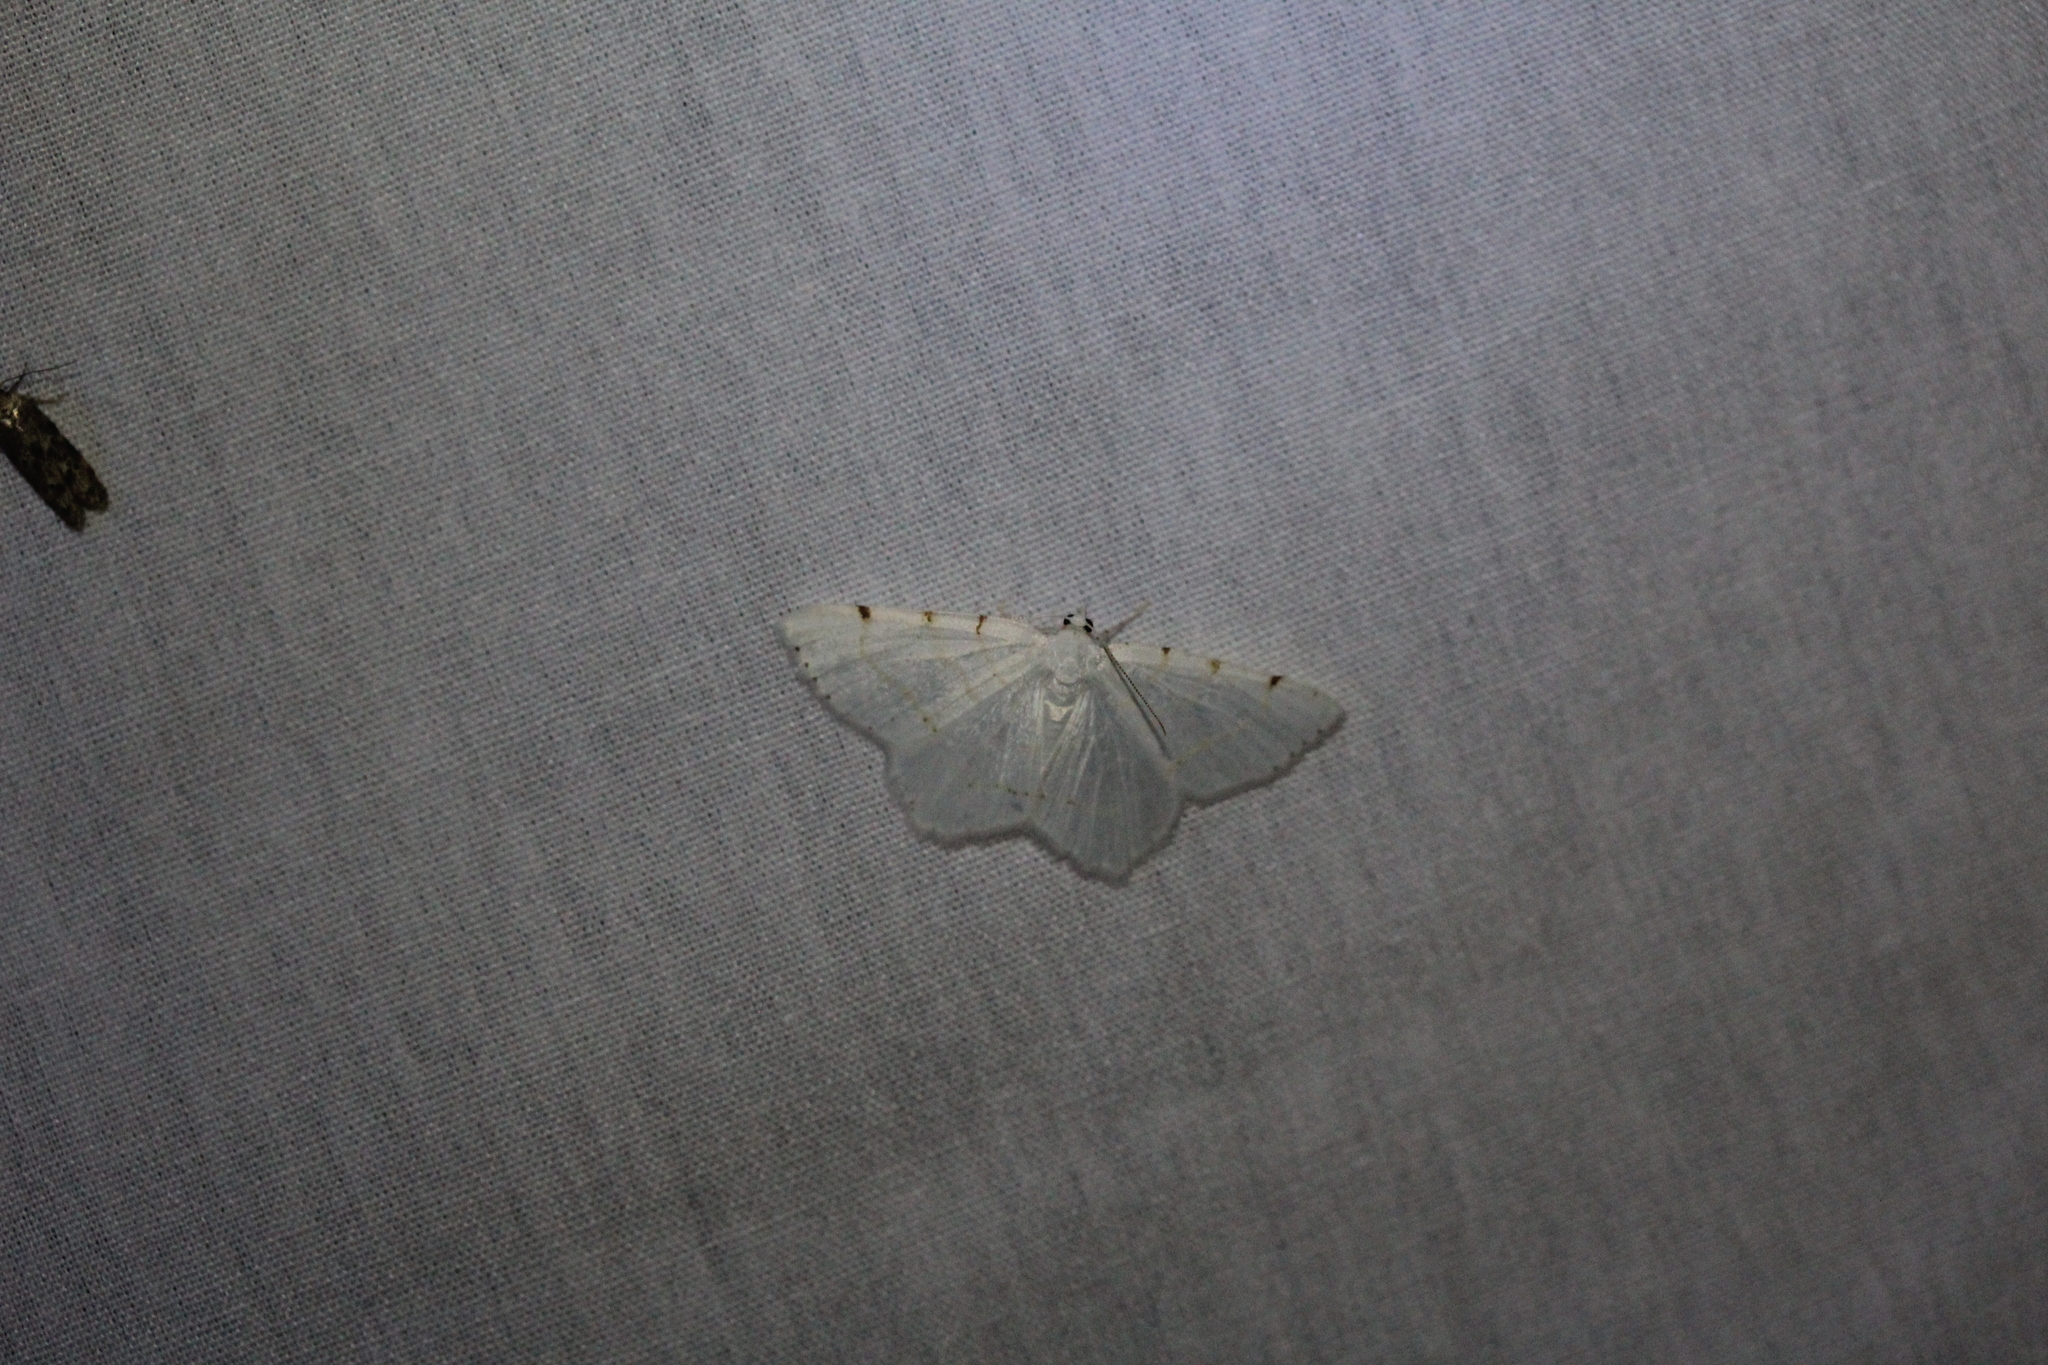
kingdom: Animalia
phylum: Arthropoda
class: Insecta
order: Lepidoptera
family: Geometridae
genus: Macaria
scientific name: Macaria pustularia
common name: Lesser maple spanworm moth
